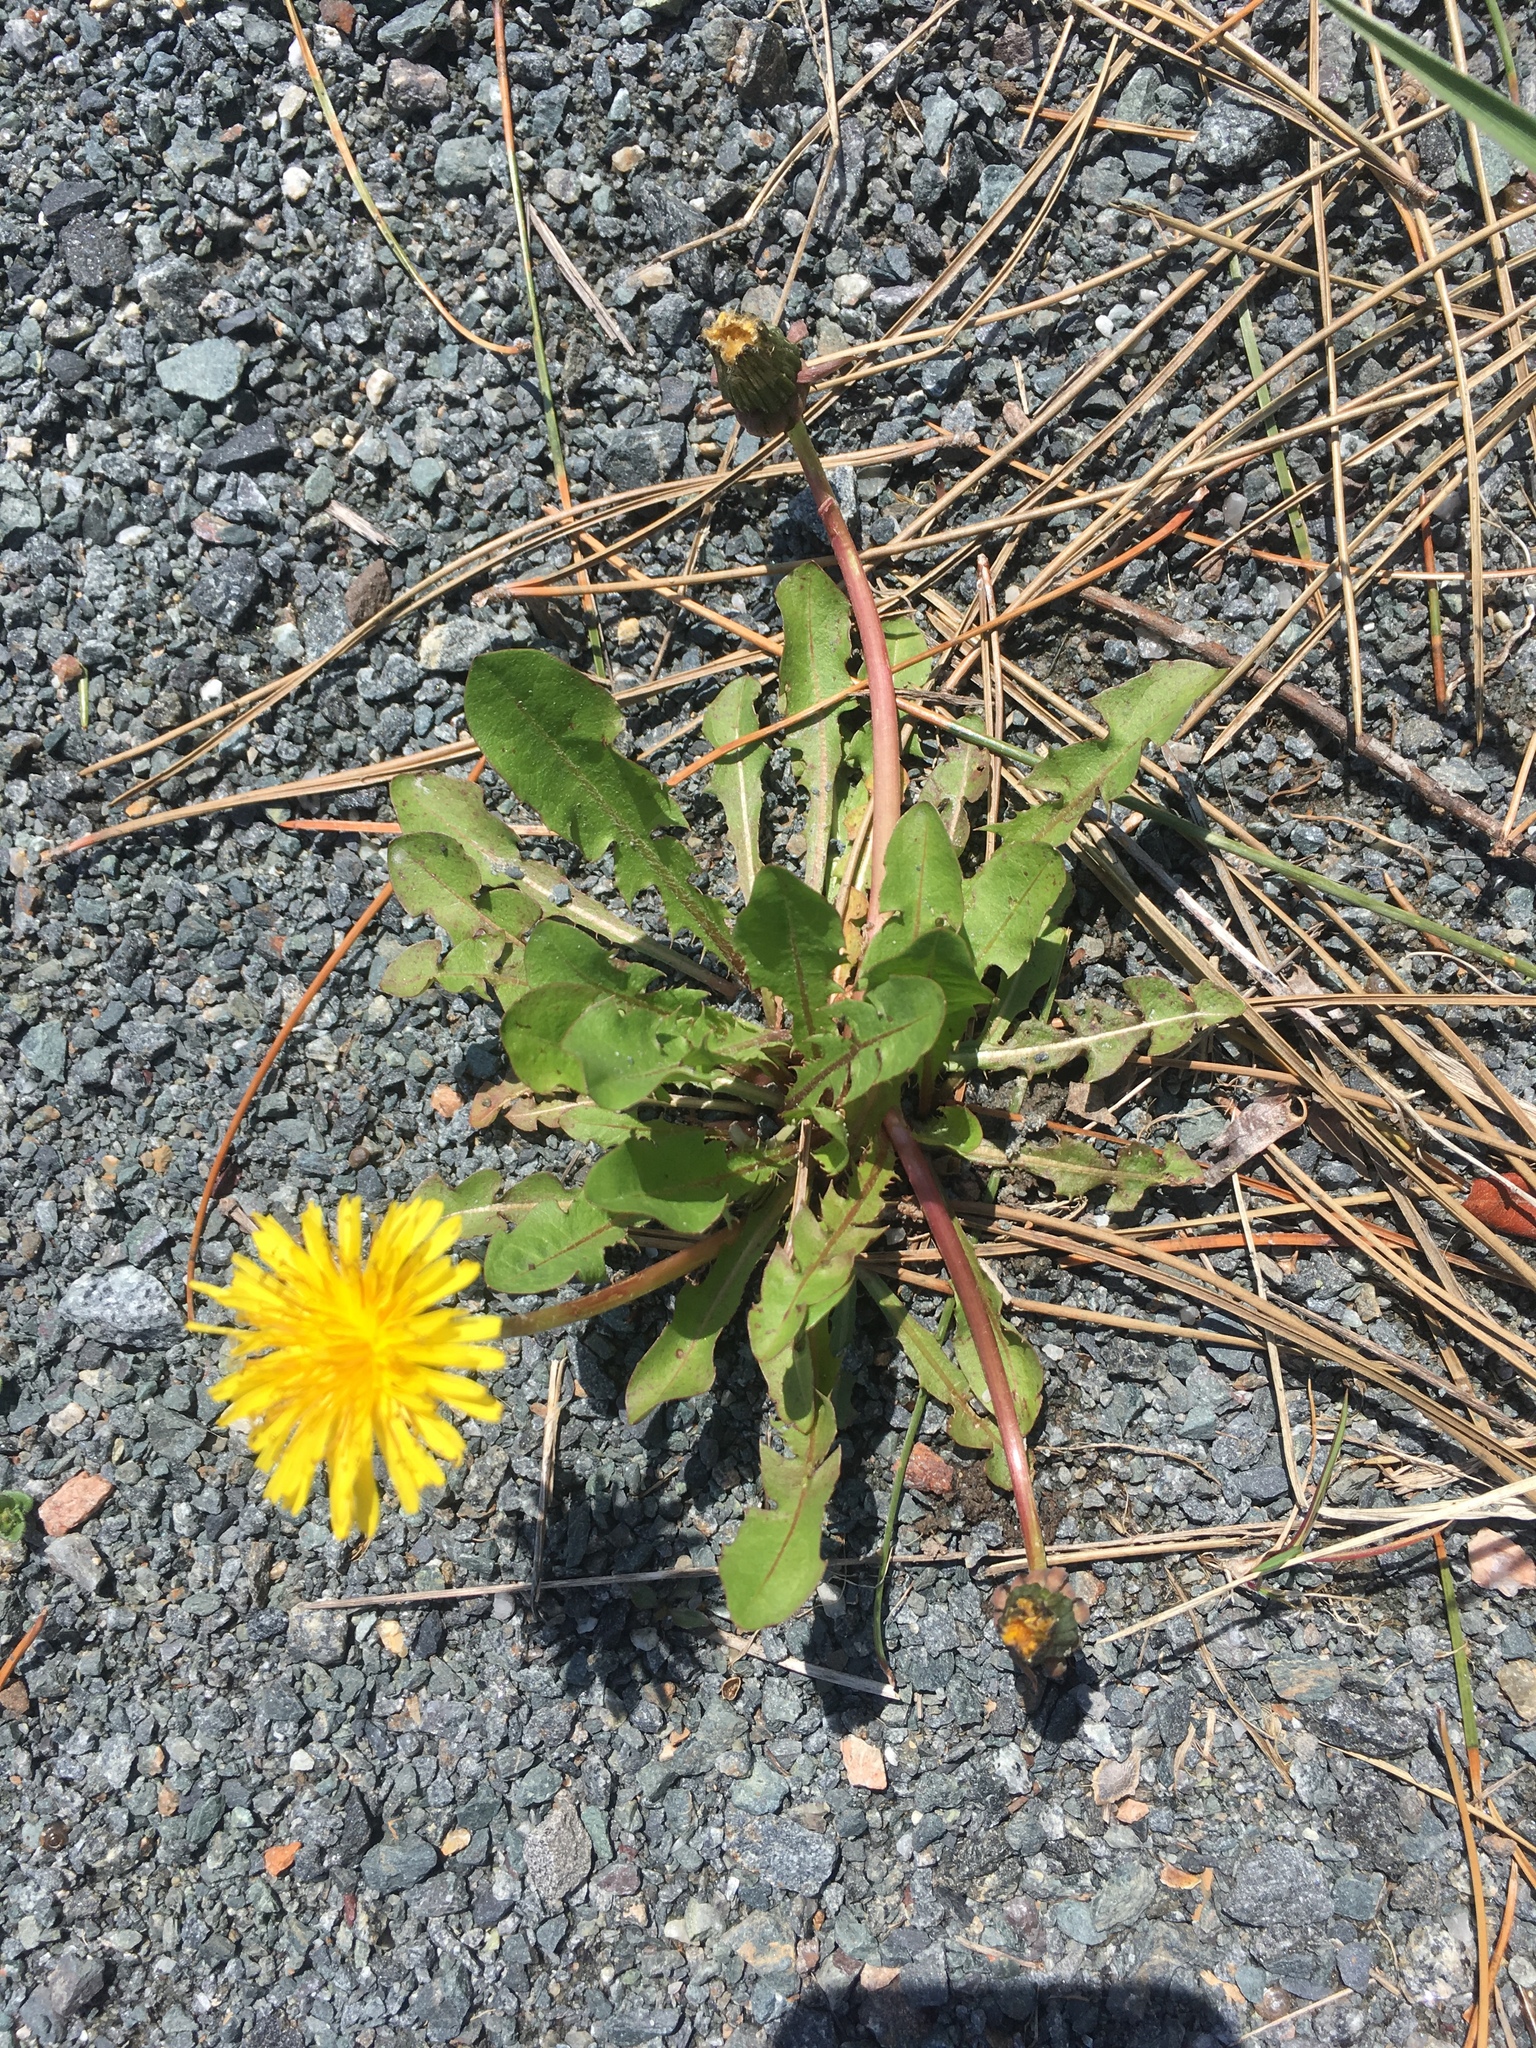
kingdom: Plantae
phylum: Tracheophyta
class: Magnoliopsida
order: Asterales
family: Asteraceae
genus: Taraxacum
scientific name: Taraxacum officinale
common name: Common dandelion
